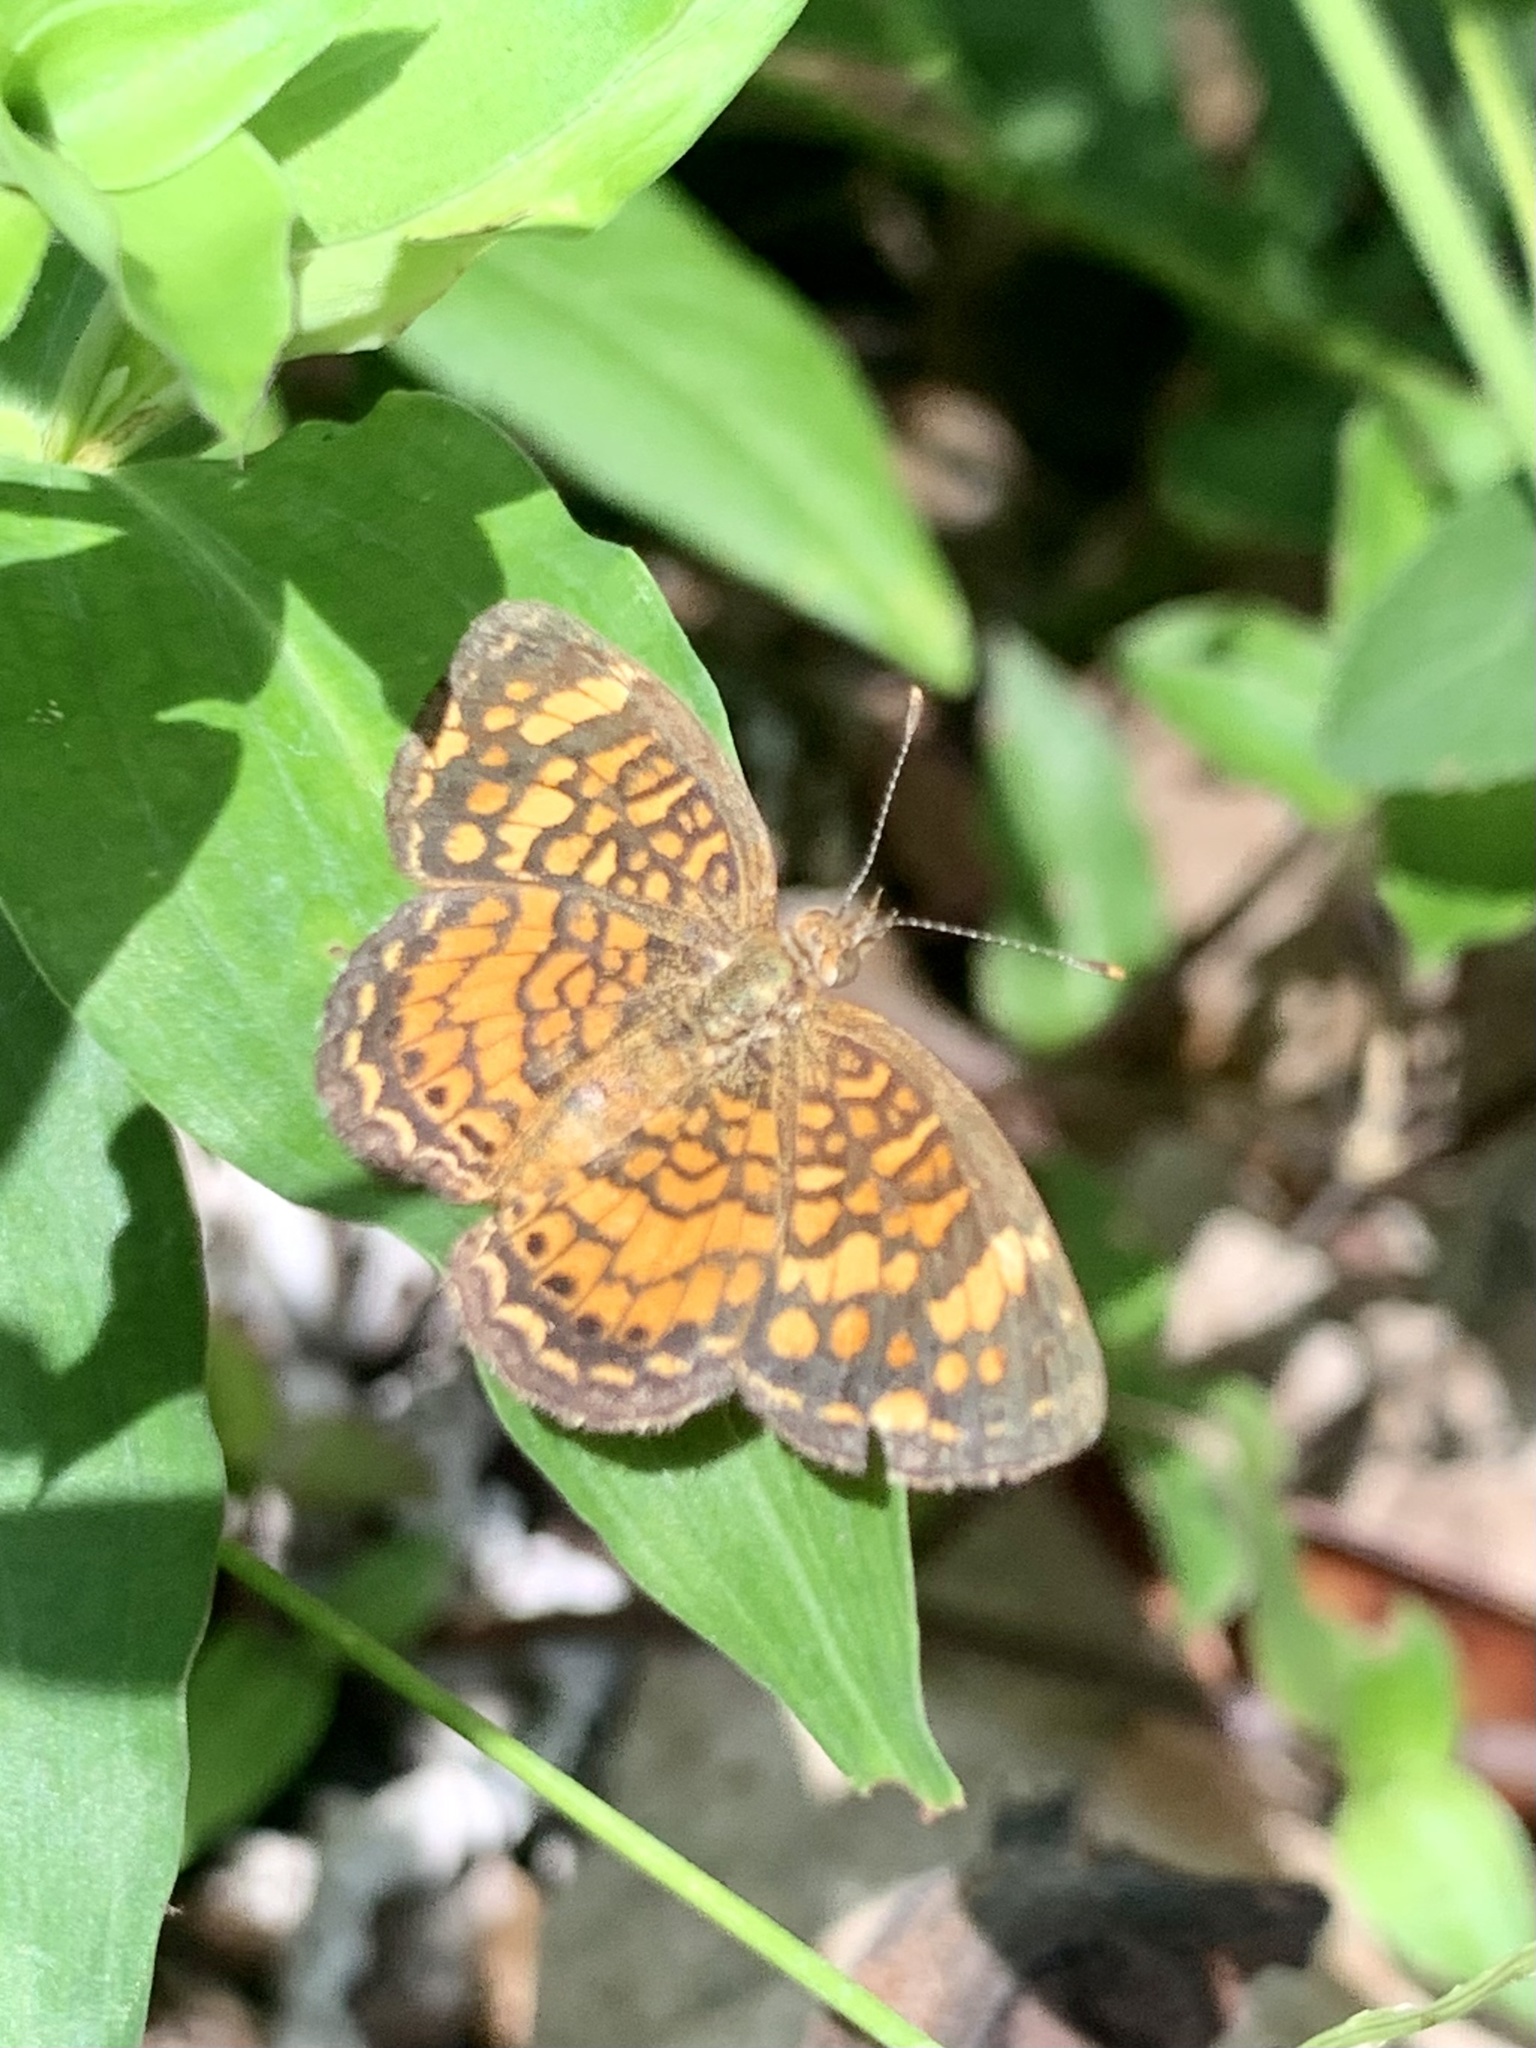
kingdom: Animalia
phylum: Arthropoda
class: Insecta
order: Lepidoptera
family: Nymphalidae
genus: Phyciodes
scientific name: Phyciodes vesta
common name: Vesta crescent
